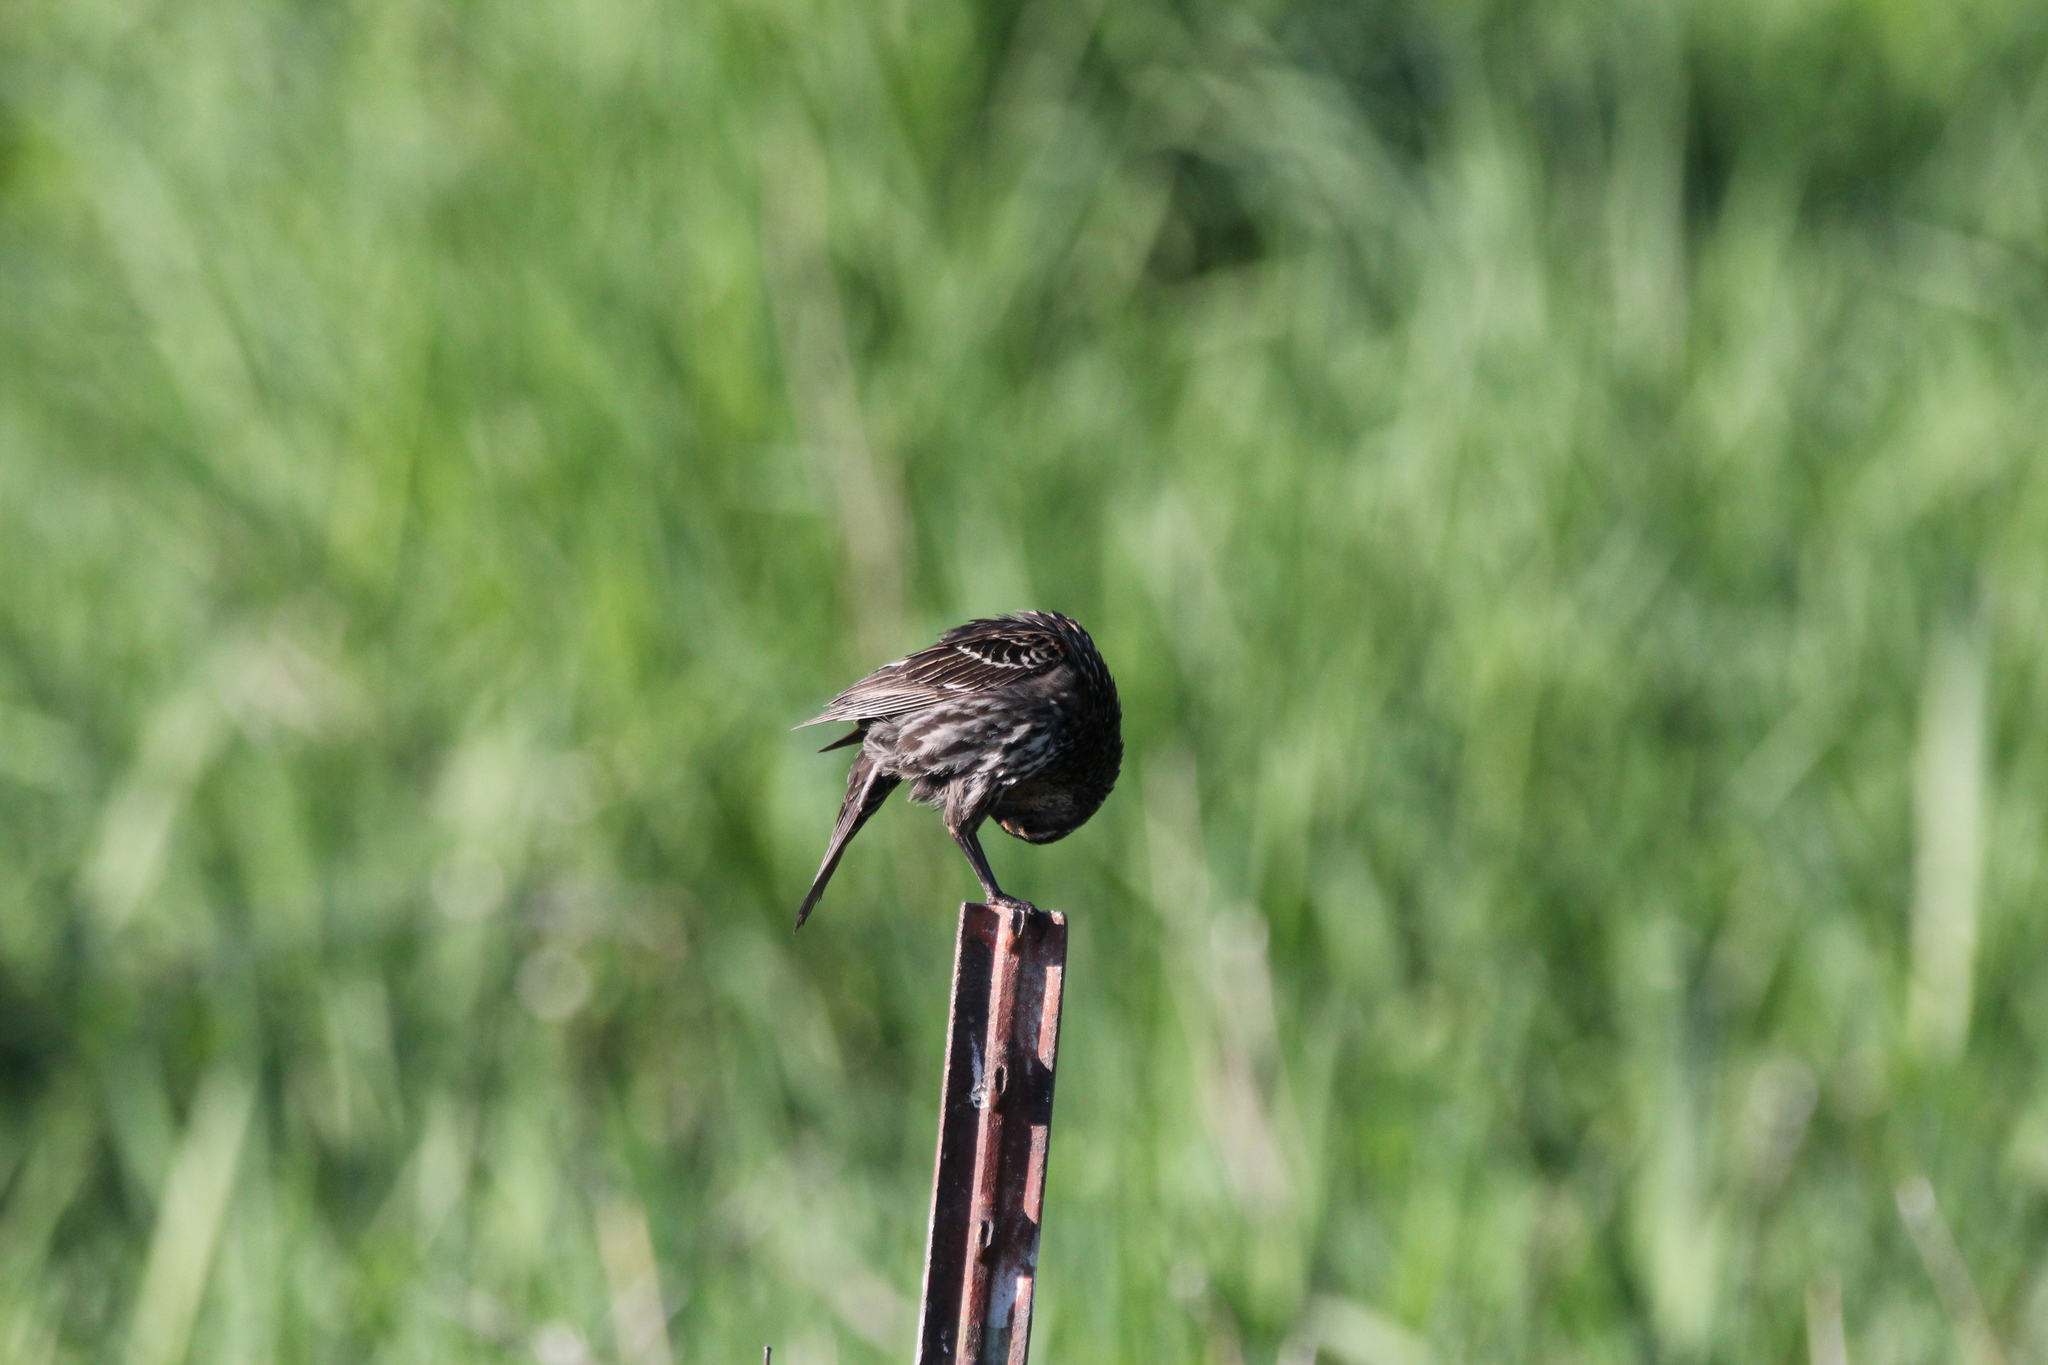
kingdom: Animalia
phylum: Chordata
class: Aves
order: Passeriformes
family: Icteridae
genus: Agelaius
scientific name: Agelaius phoeniceus
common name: Red-winged blackbird
